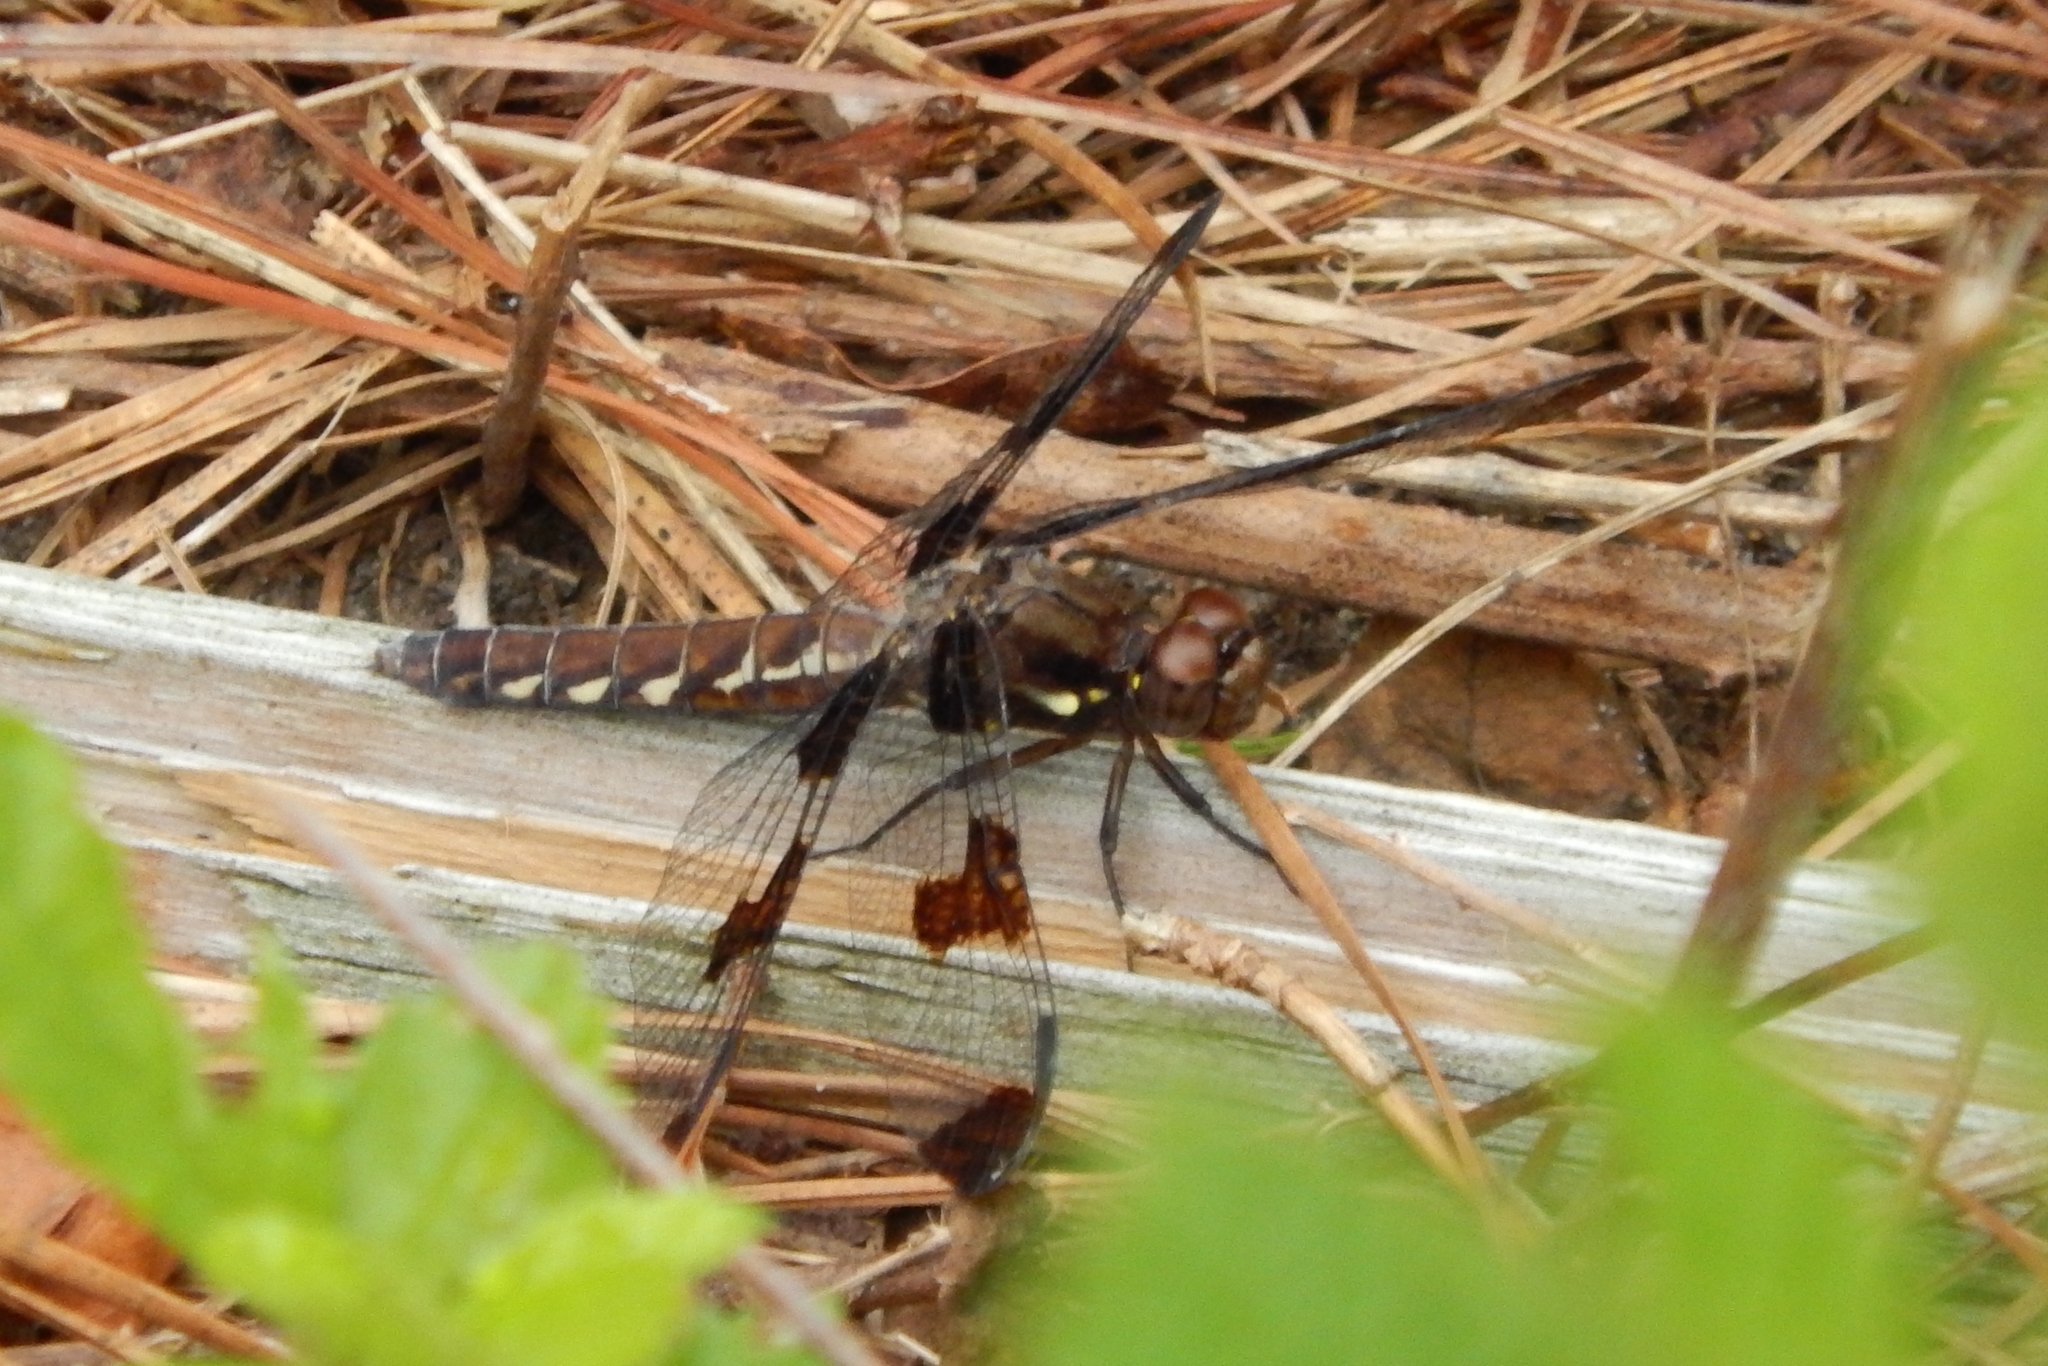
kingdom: Animalia
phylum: Arthropoda
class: Insecta
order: Odonata
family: Libellulidae
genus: Plathemis
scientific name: Plathemis lydia
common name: Common whitetail
